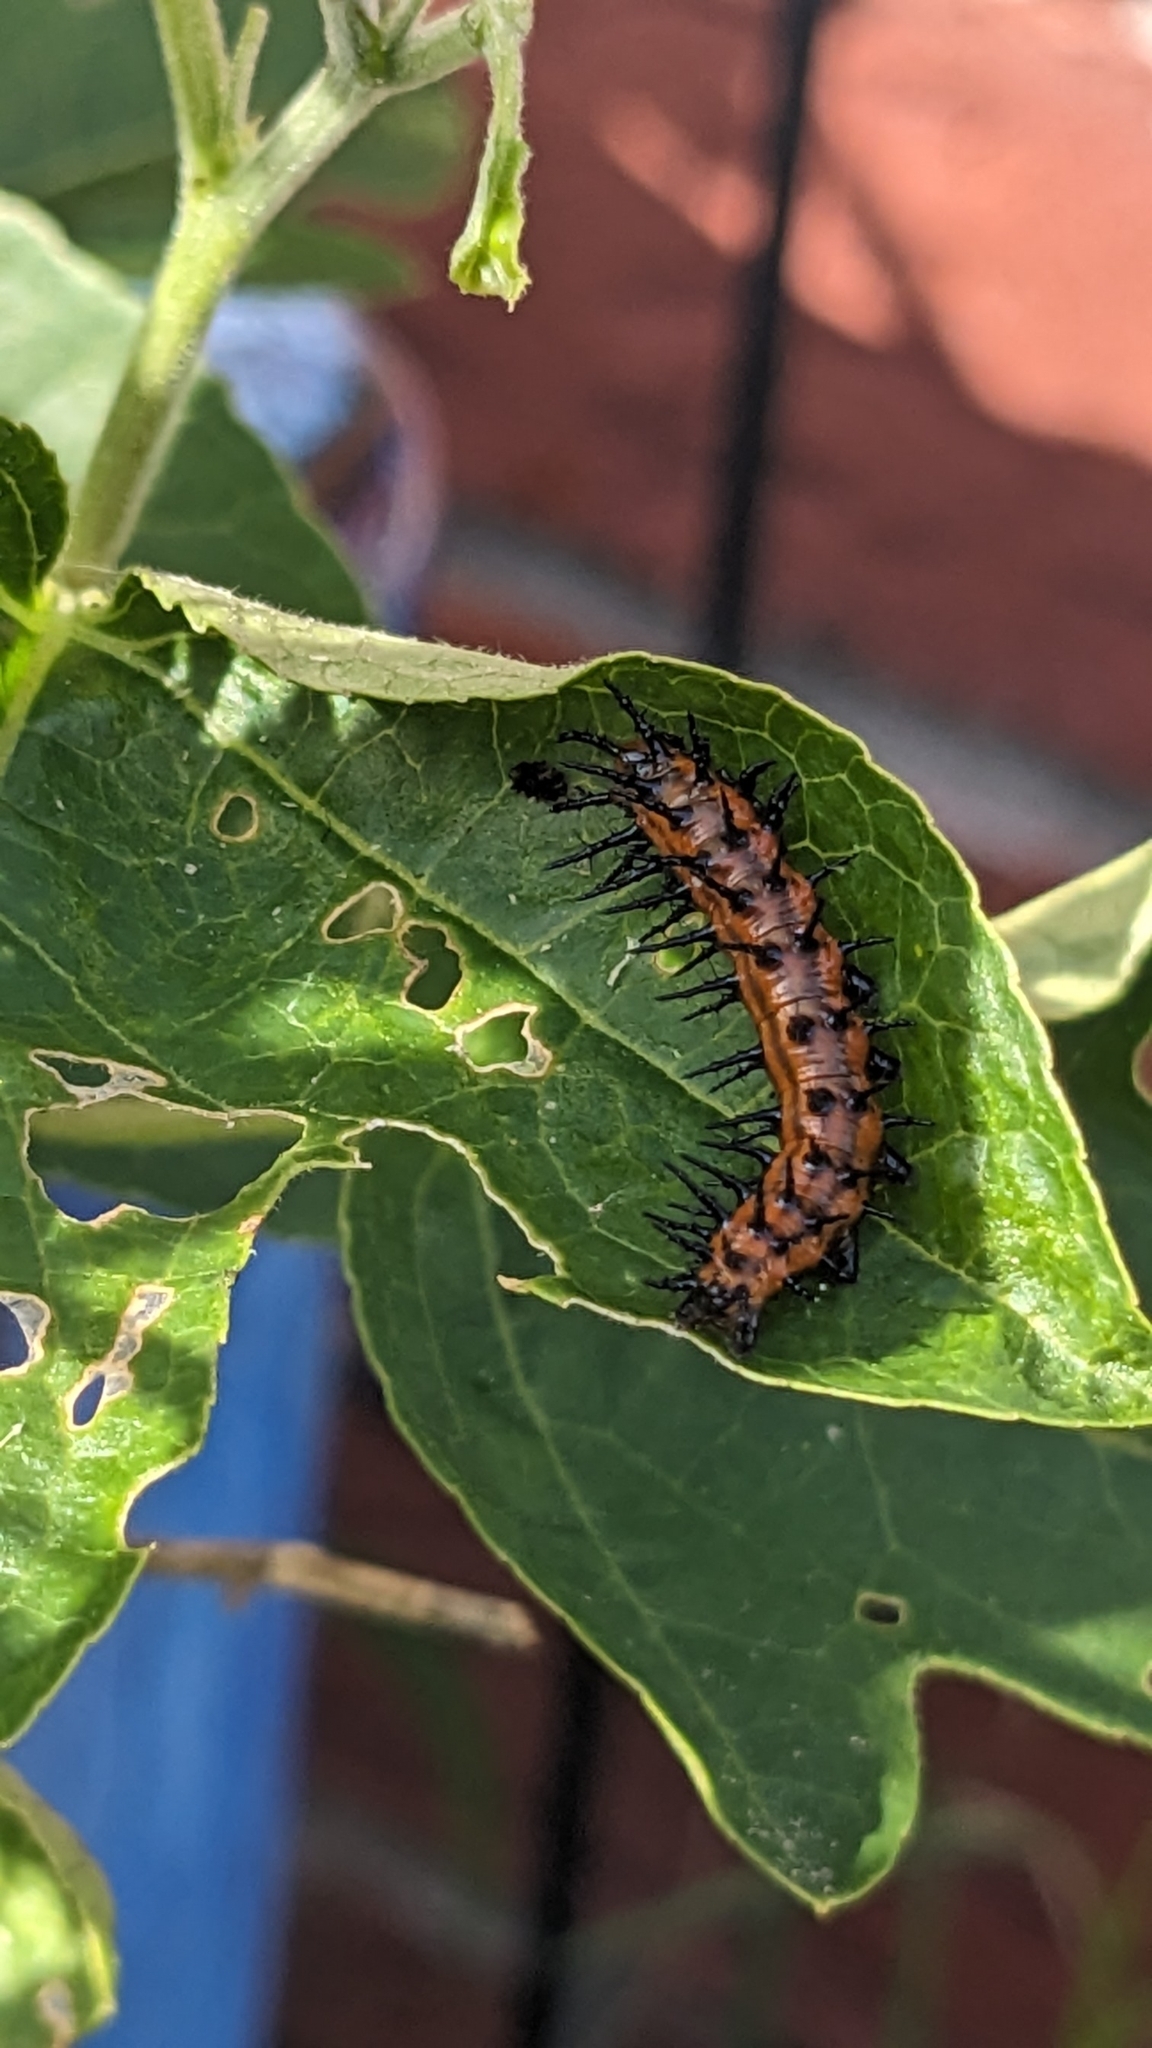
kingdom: Animalia
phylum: Arthropoda
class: Insecta
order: Lepidoptera
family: Nymphalidae
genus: Dione
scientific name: Dione vanillae
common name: Gulf fritillary
